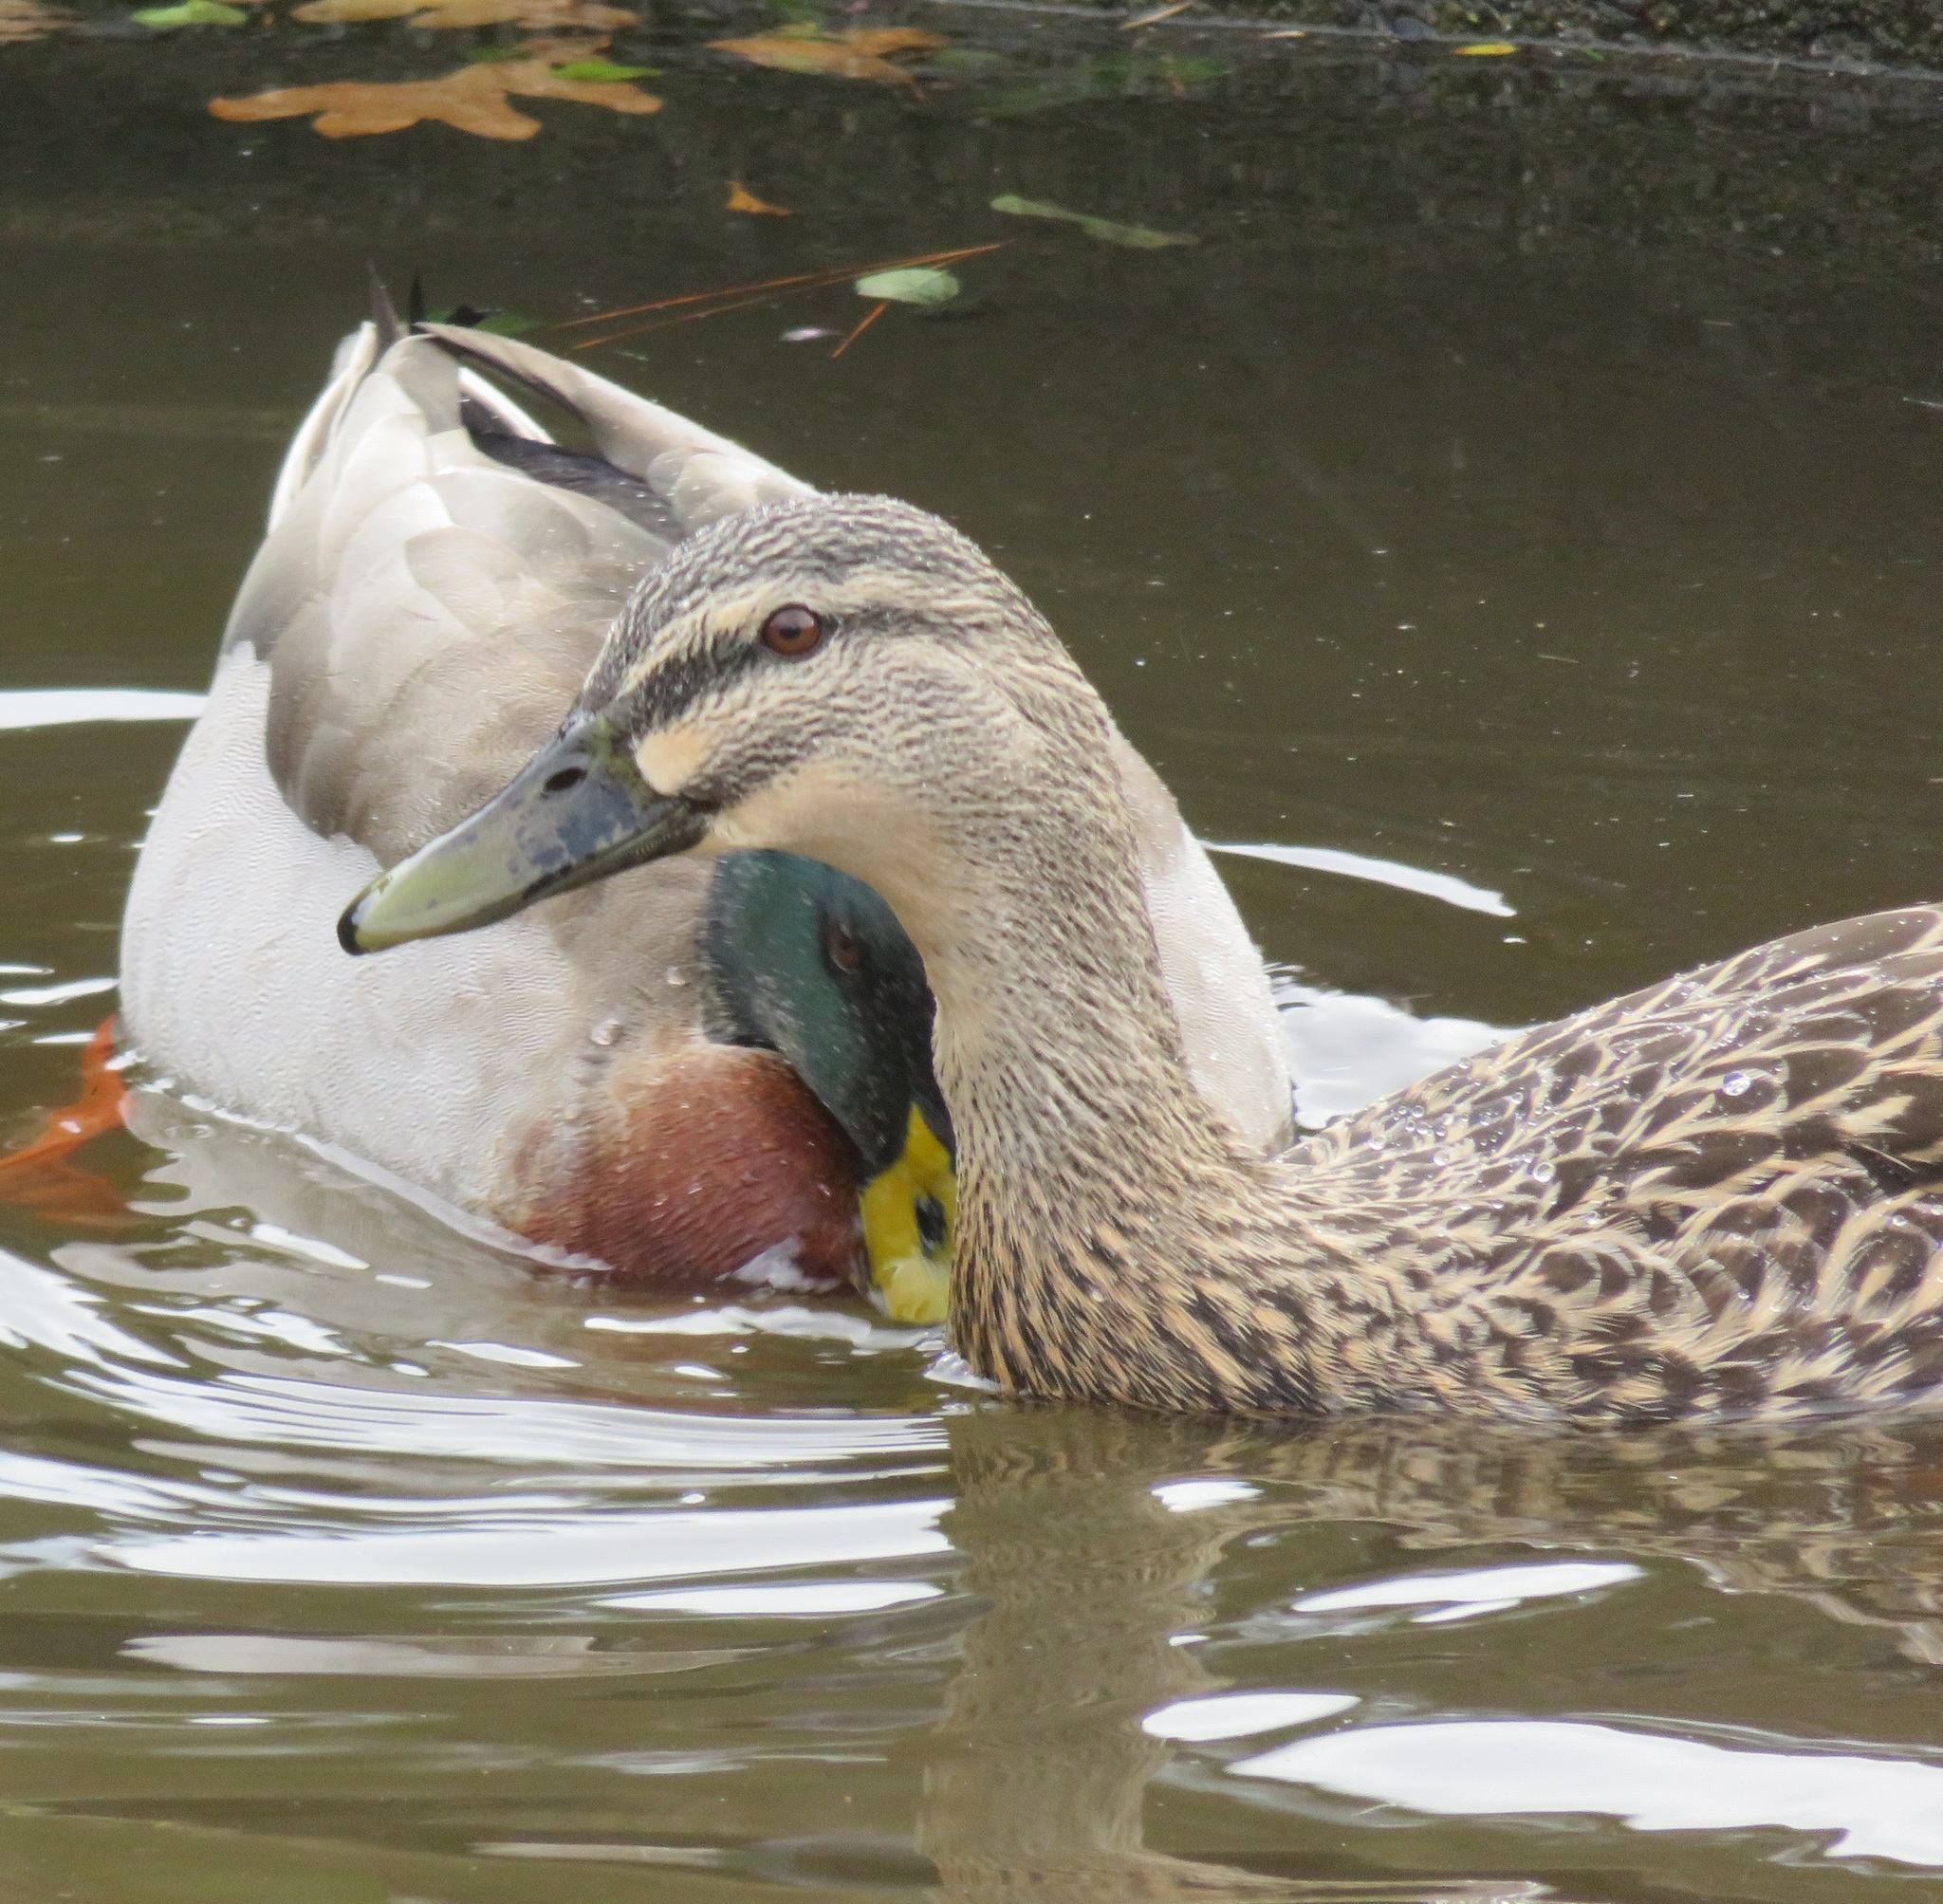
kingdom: Animalia
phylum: Chordata
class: Aves
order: Anseriformes
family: Anatidae
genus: Anas
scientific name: Anas
